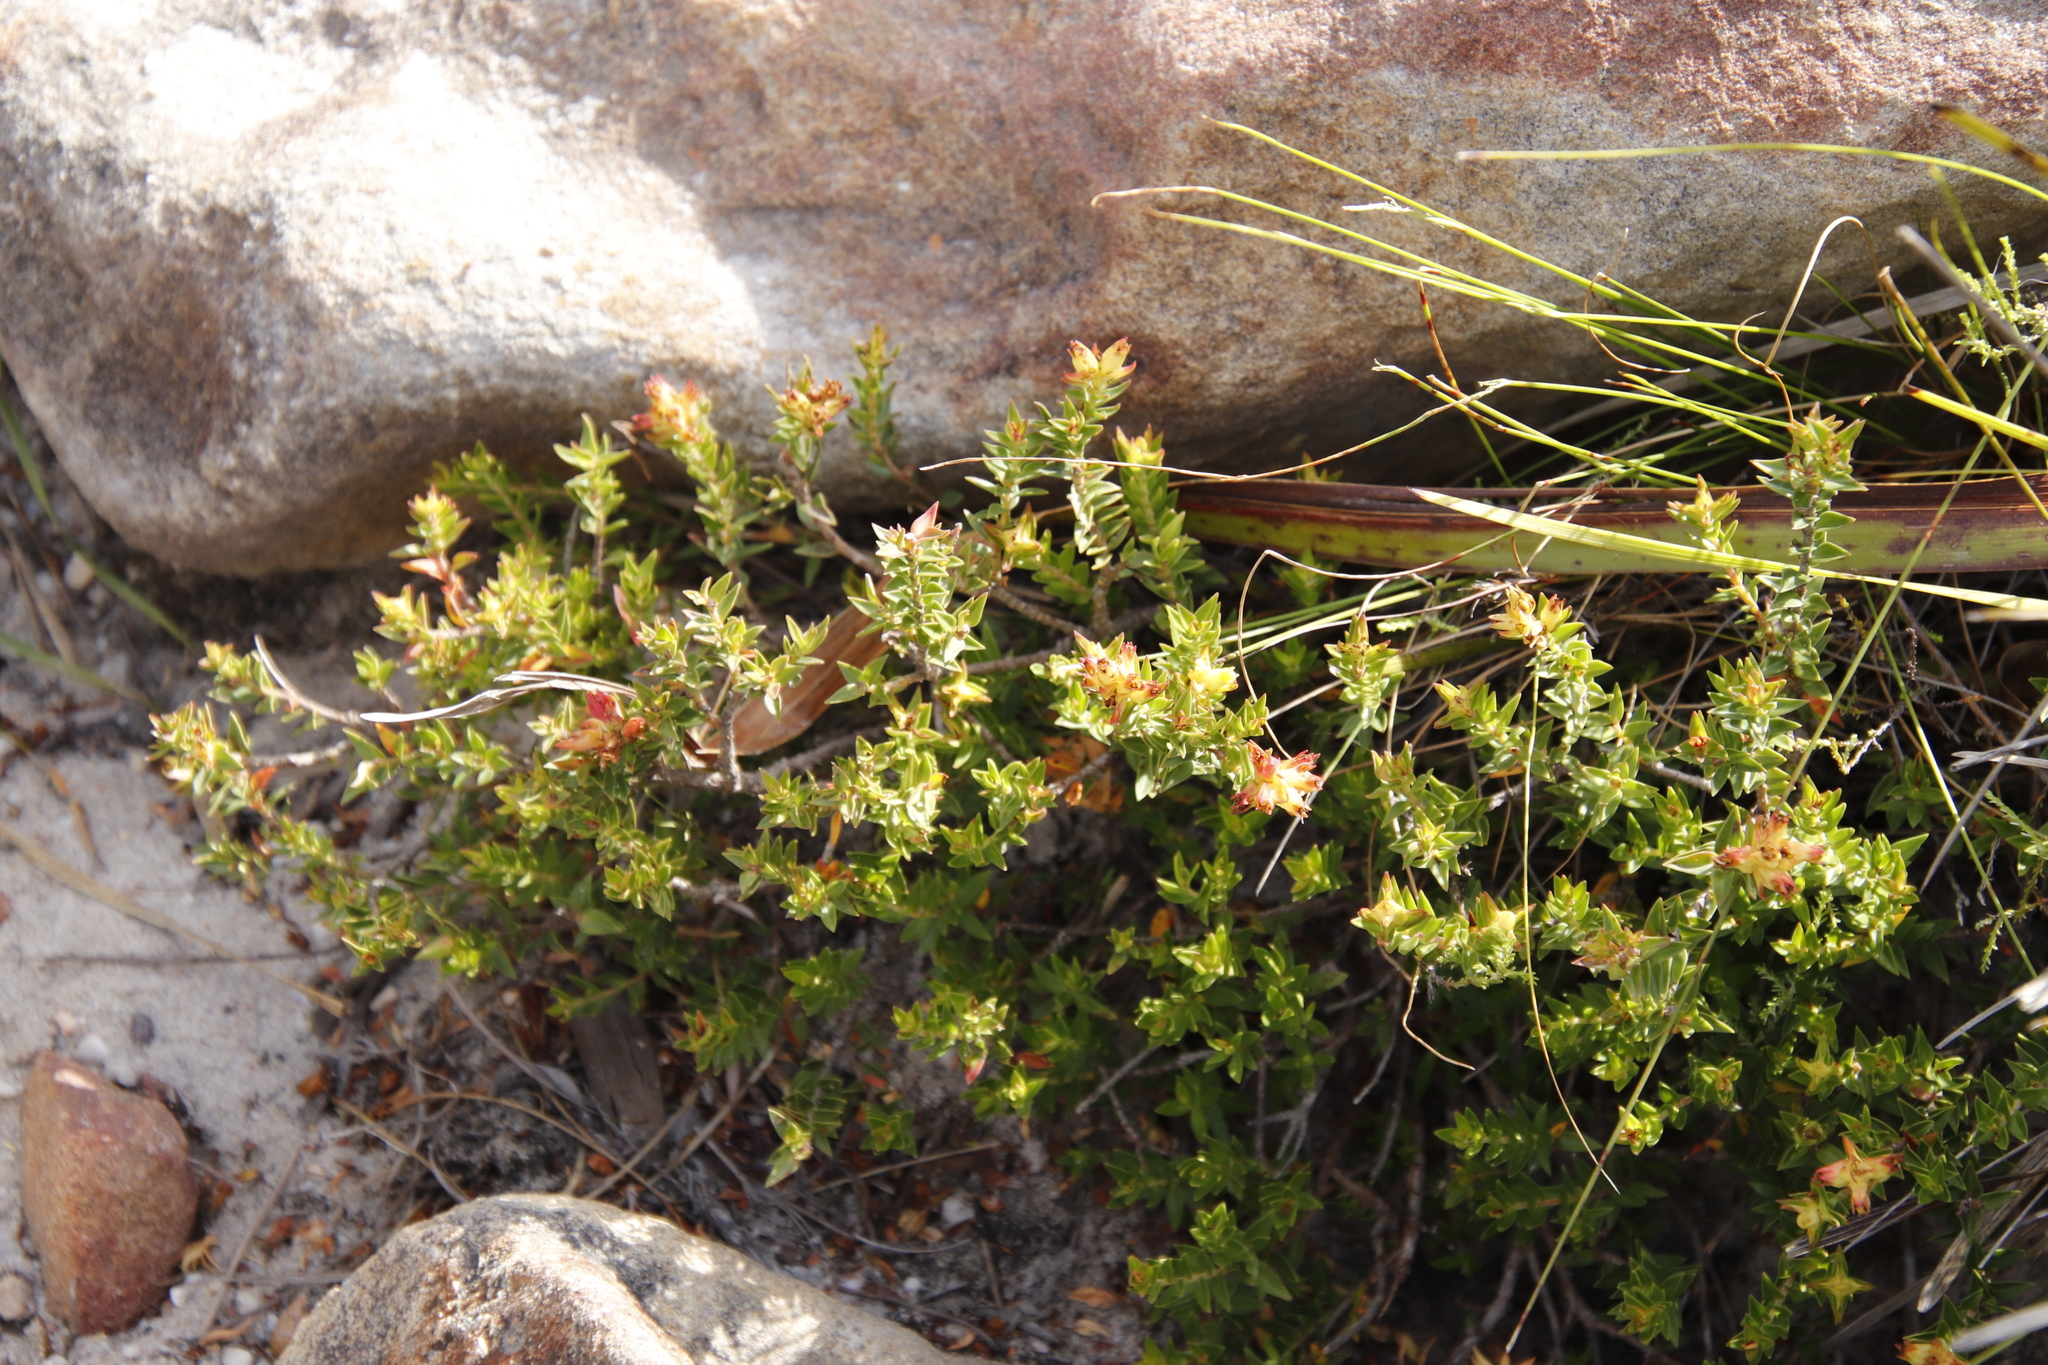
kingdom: Plantae
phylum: Tracheophyta
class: Magnoliopsida
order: Myrtales
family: Penaeaceae
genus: Penaea
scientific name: Penaea mucronata
